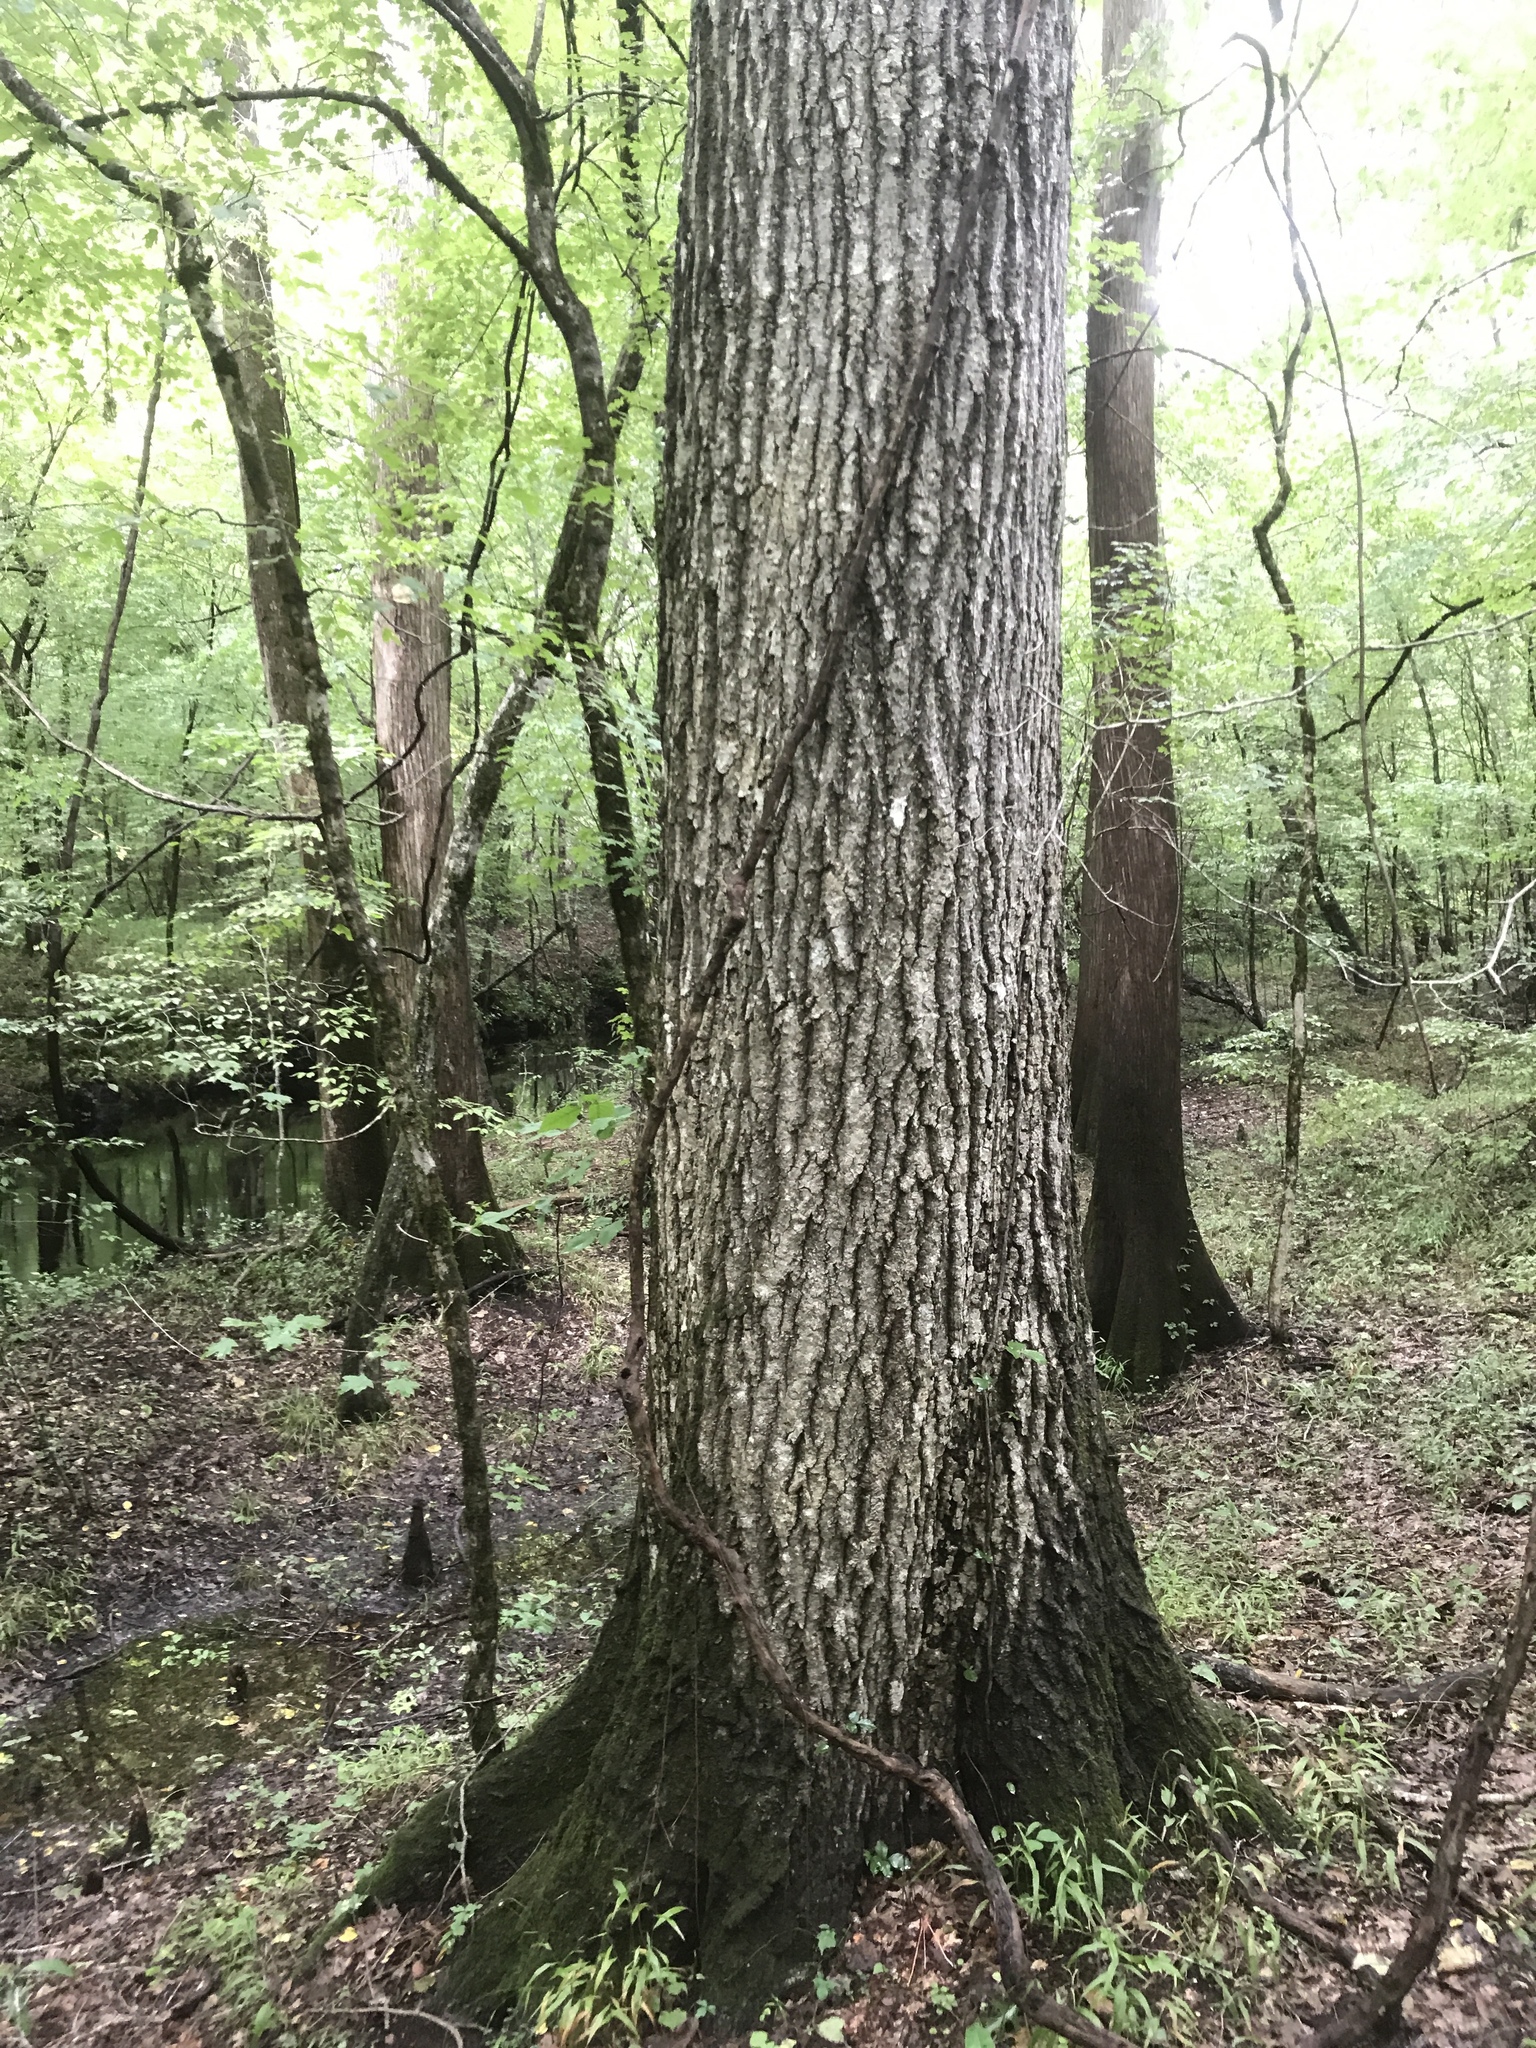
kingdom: Plantae
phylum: Tracheophyta
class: Magnoliopsida
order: Fagales
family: Fagaceae
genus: Quercus
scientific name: Quercus shumardii
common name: Shumard oak
